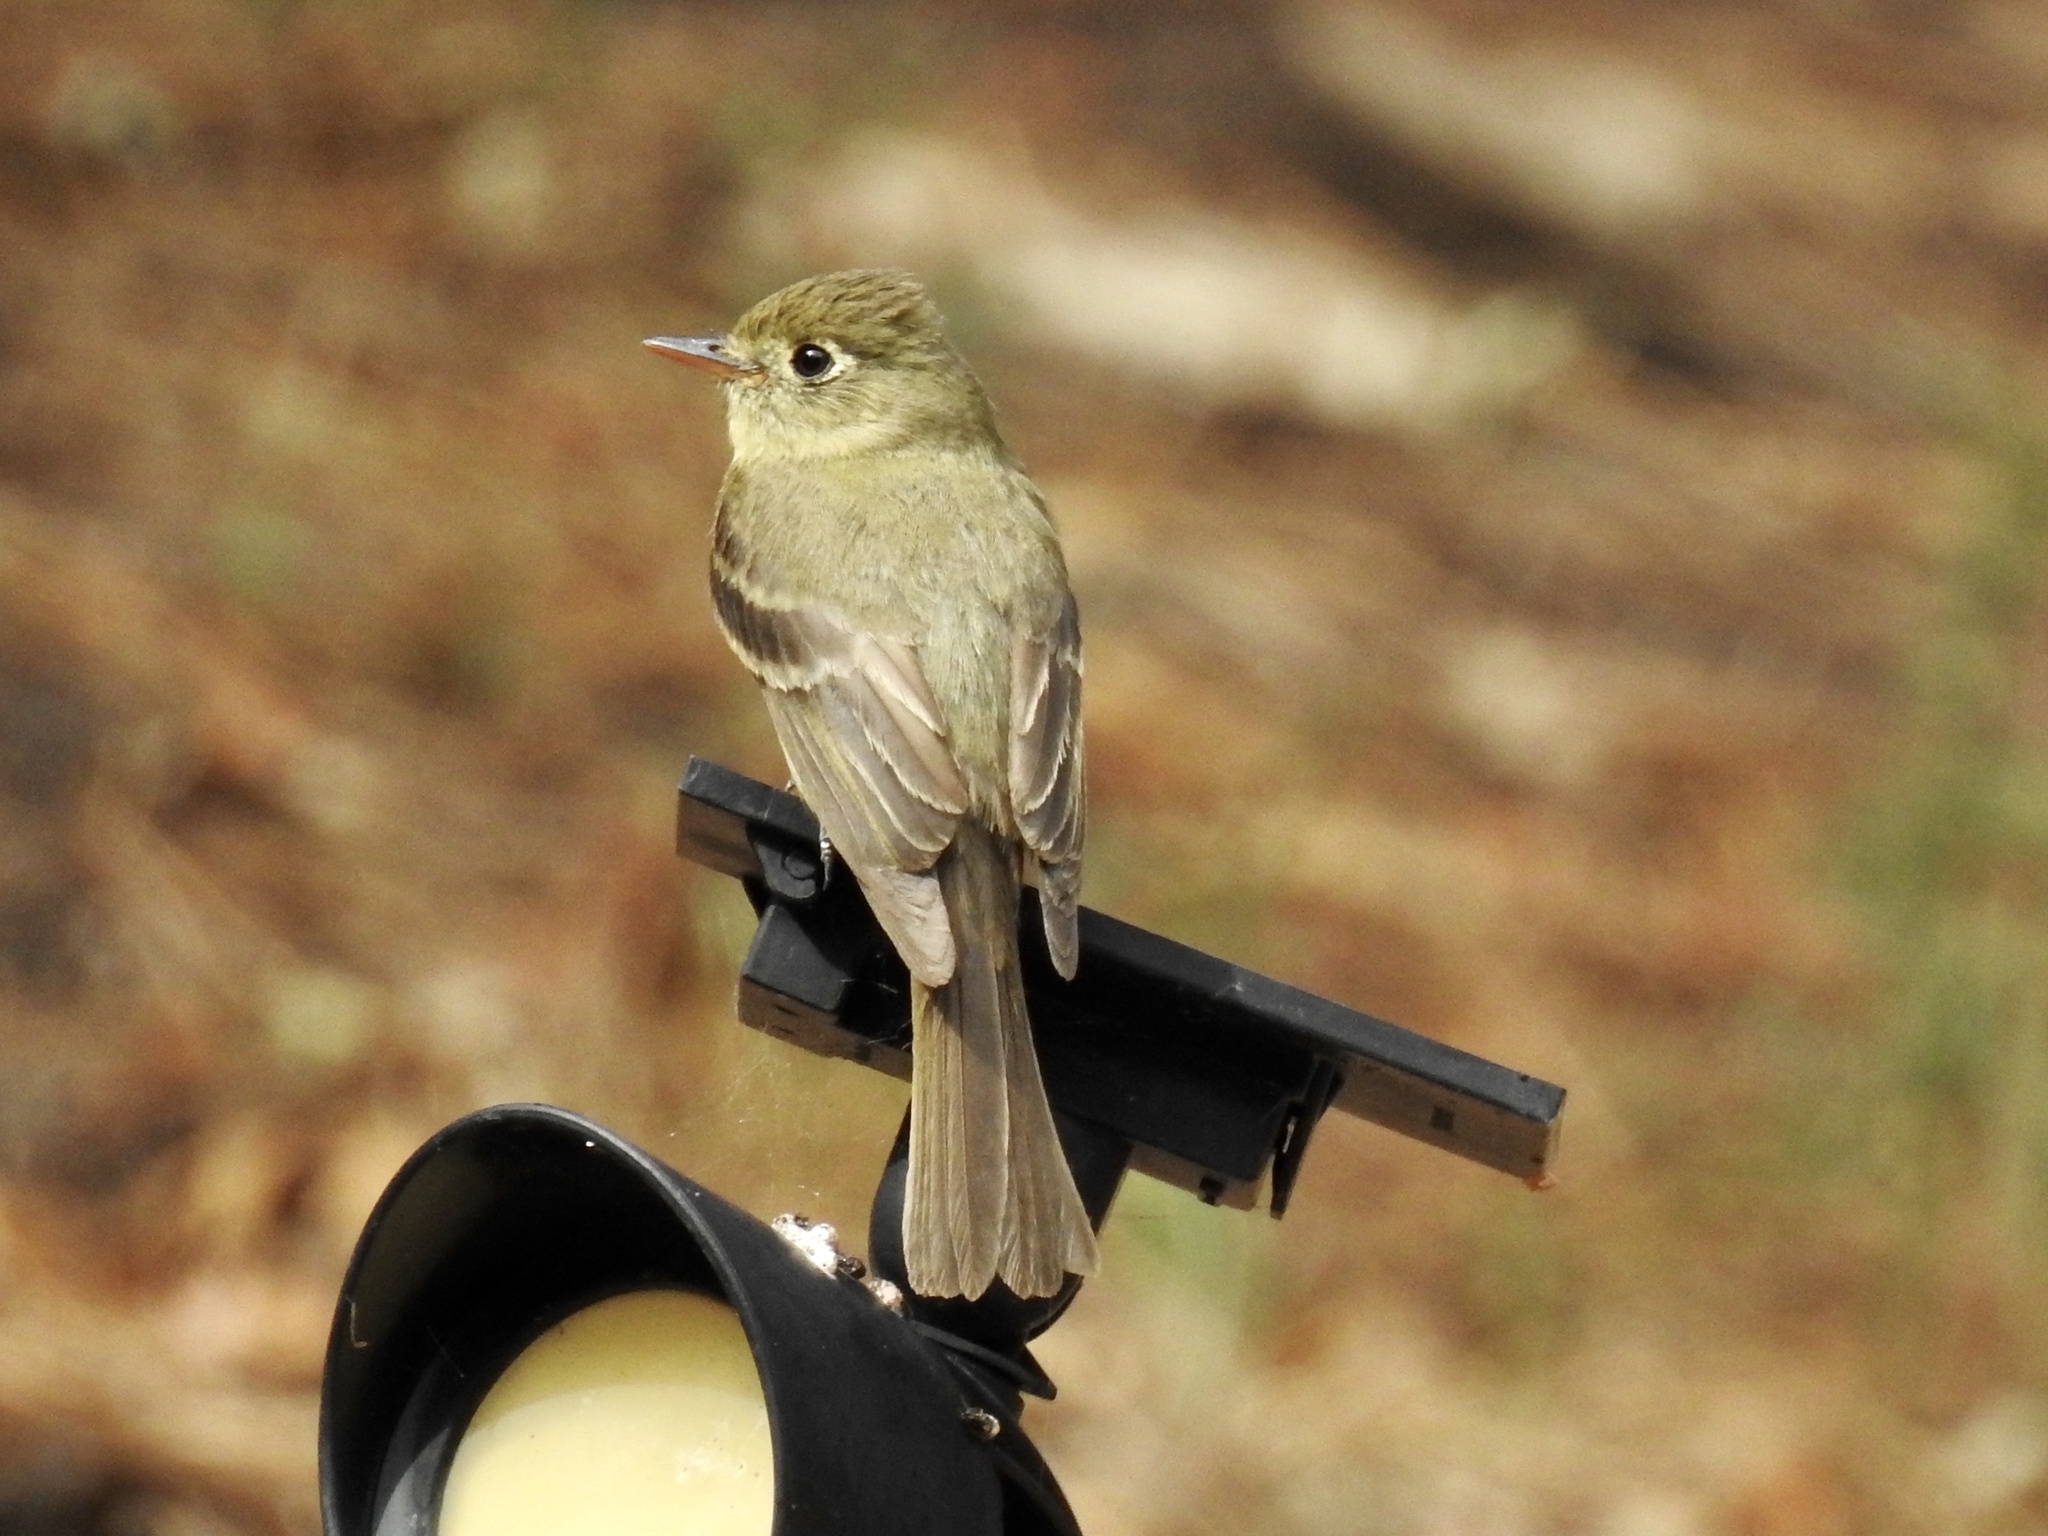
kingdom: Animalia
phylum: Chordata
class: Aves
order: Passeriformes
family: Tyrannidae
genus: Empidonax
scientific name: Empidonax difficilis
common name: Pacific-slope flycatcher
